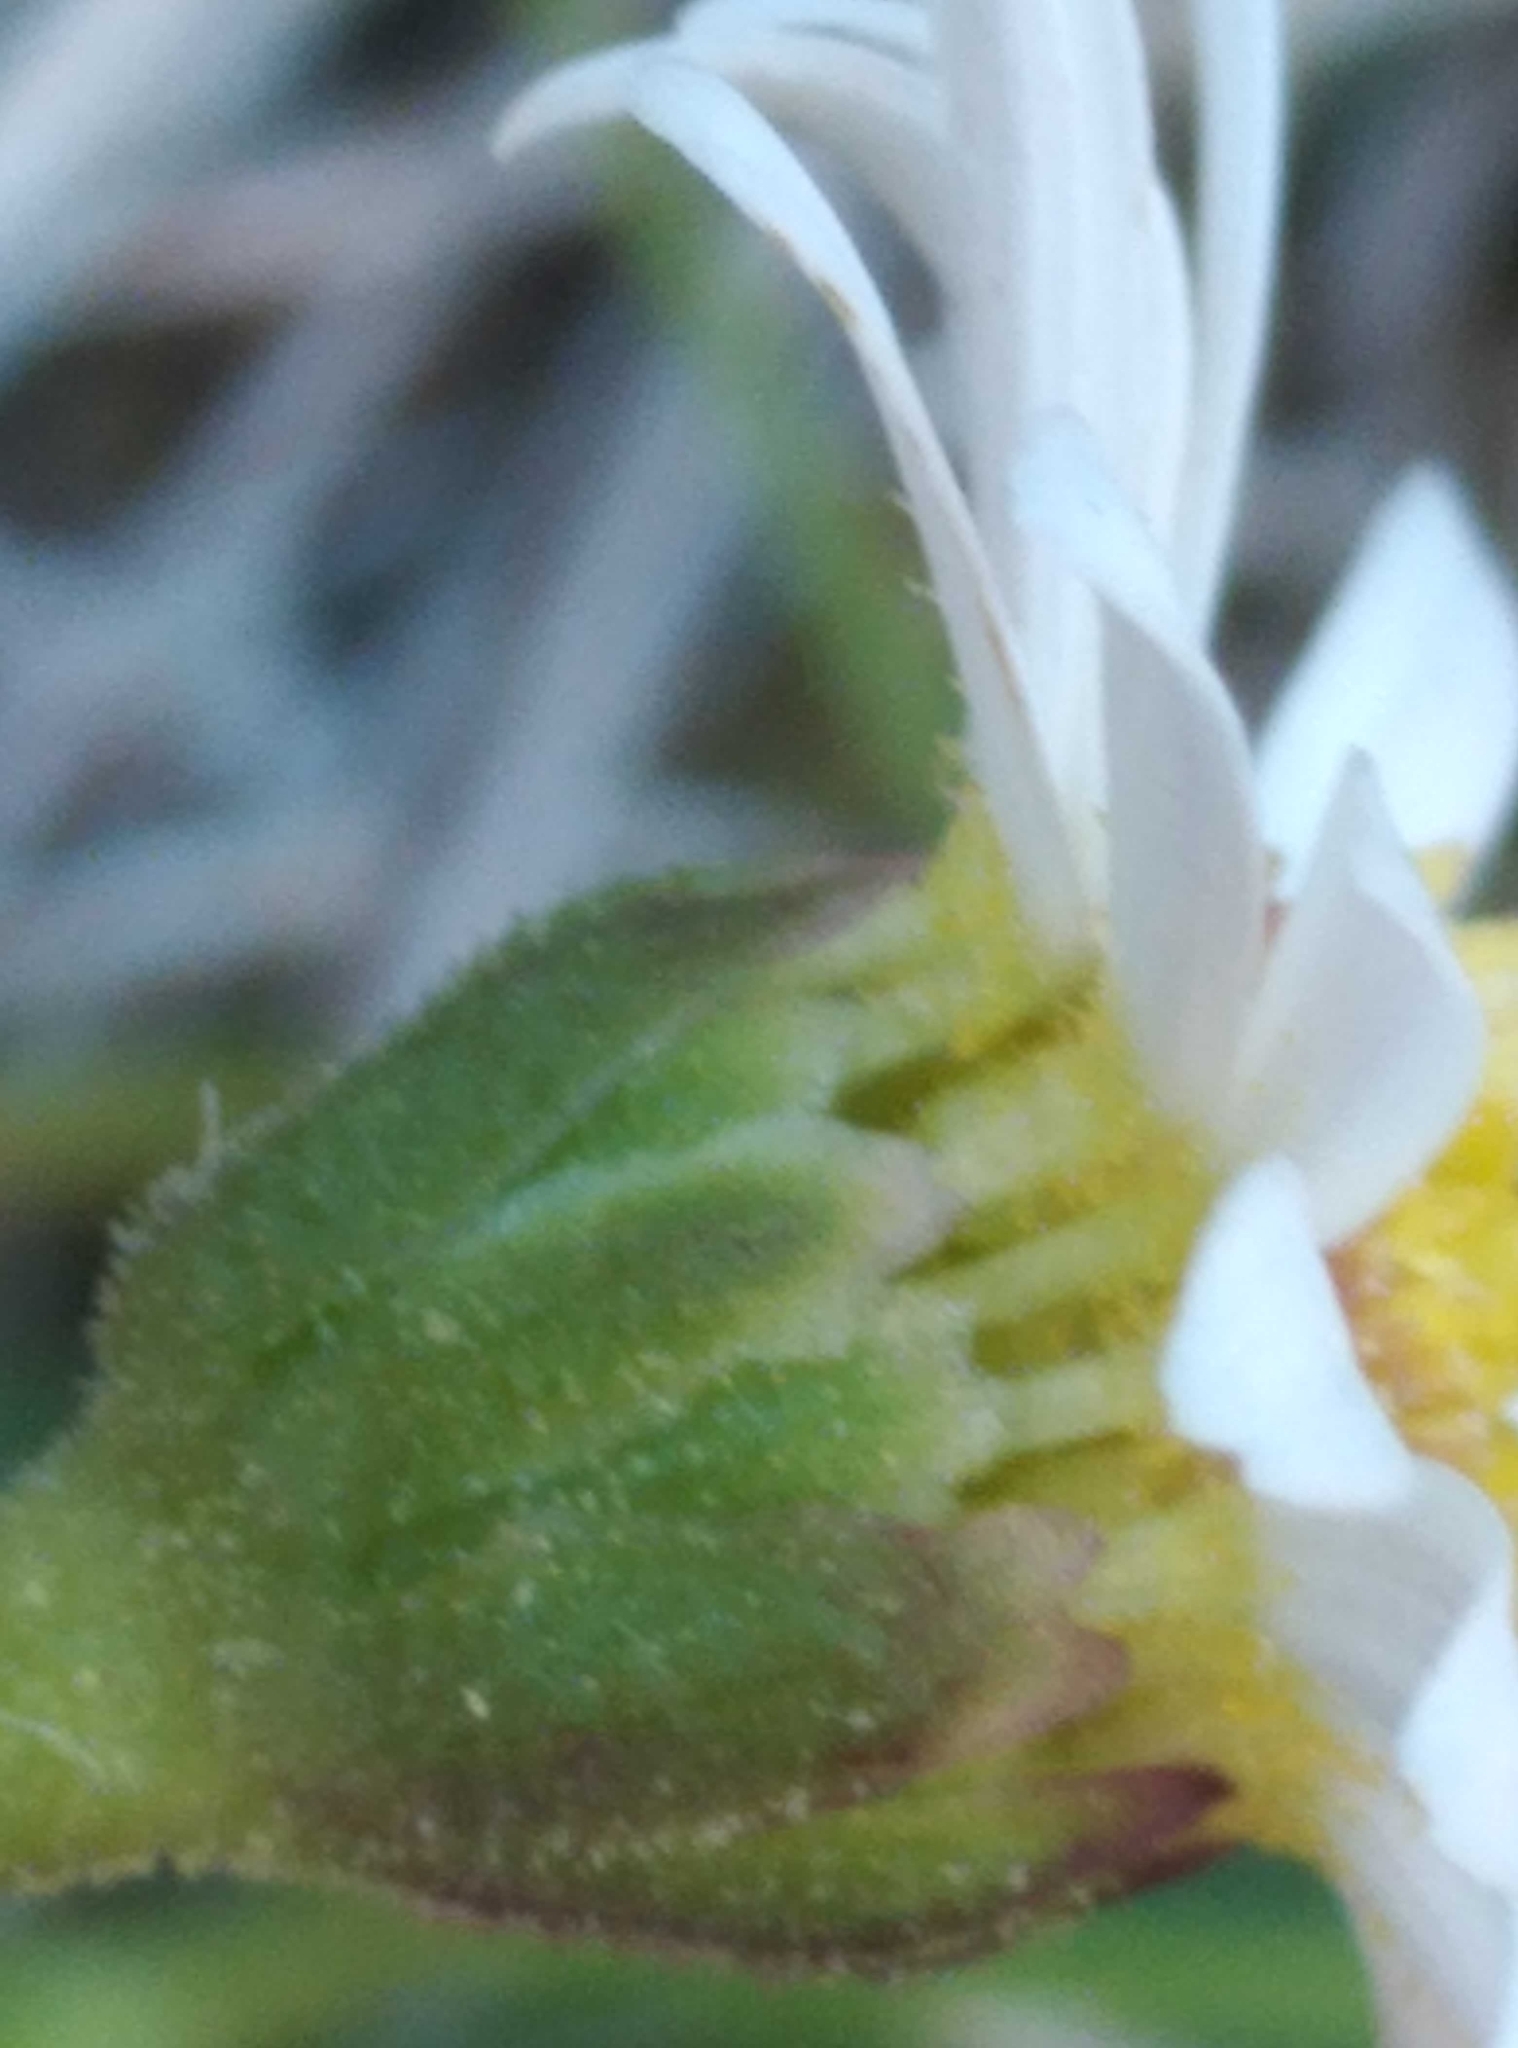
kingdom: Plantae
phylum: Tracheophyta
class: Magnoliopsida
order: Asterales
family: Asteraceae
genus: Brachyscome
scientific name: Brachyscome radicata
